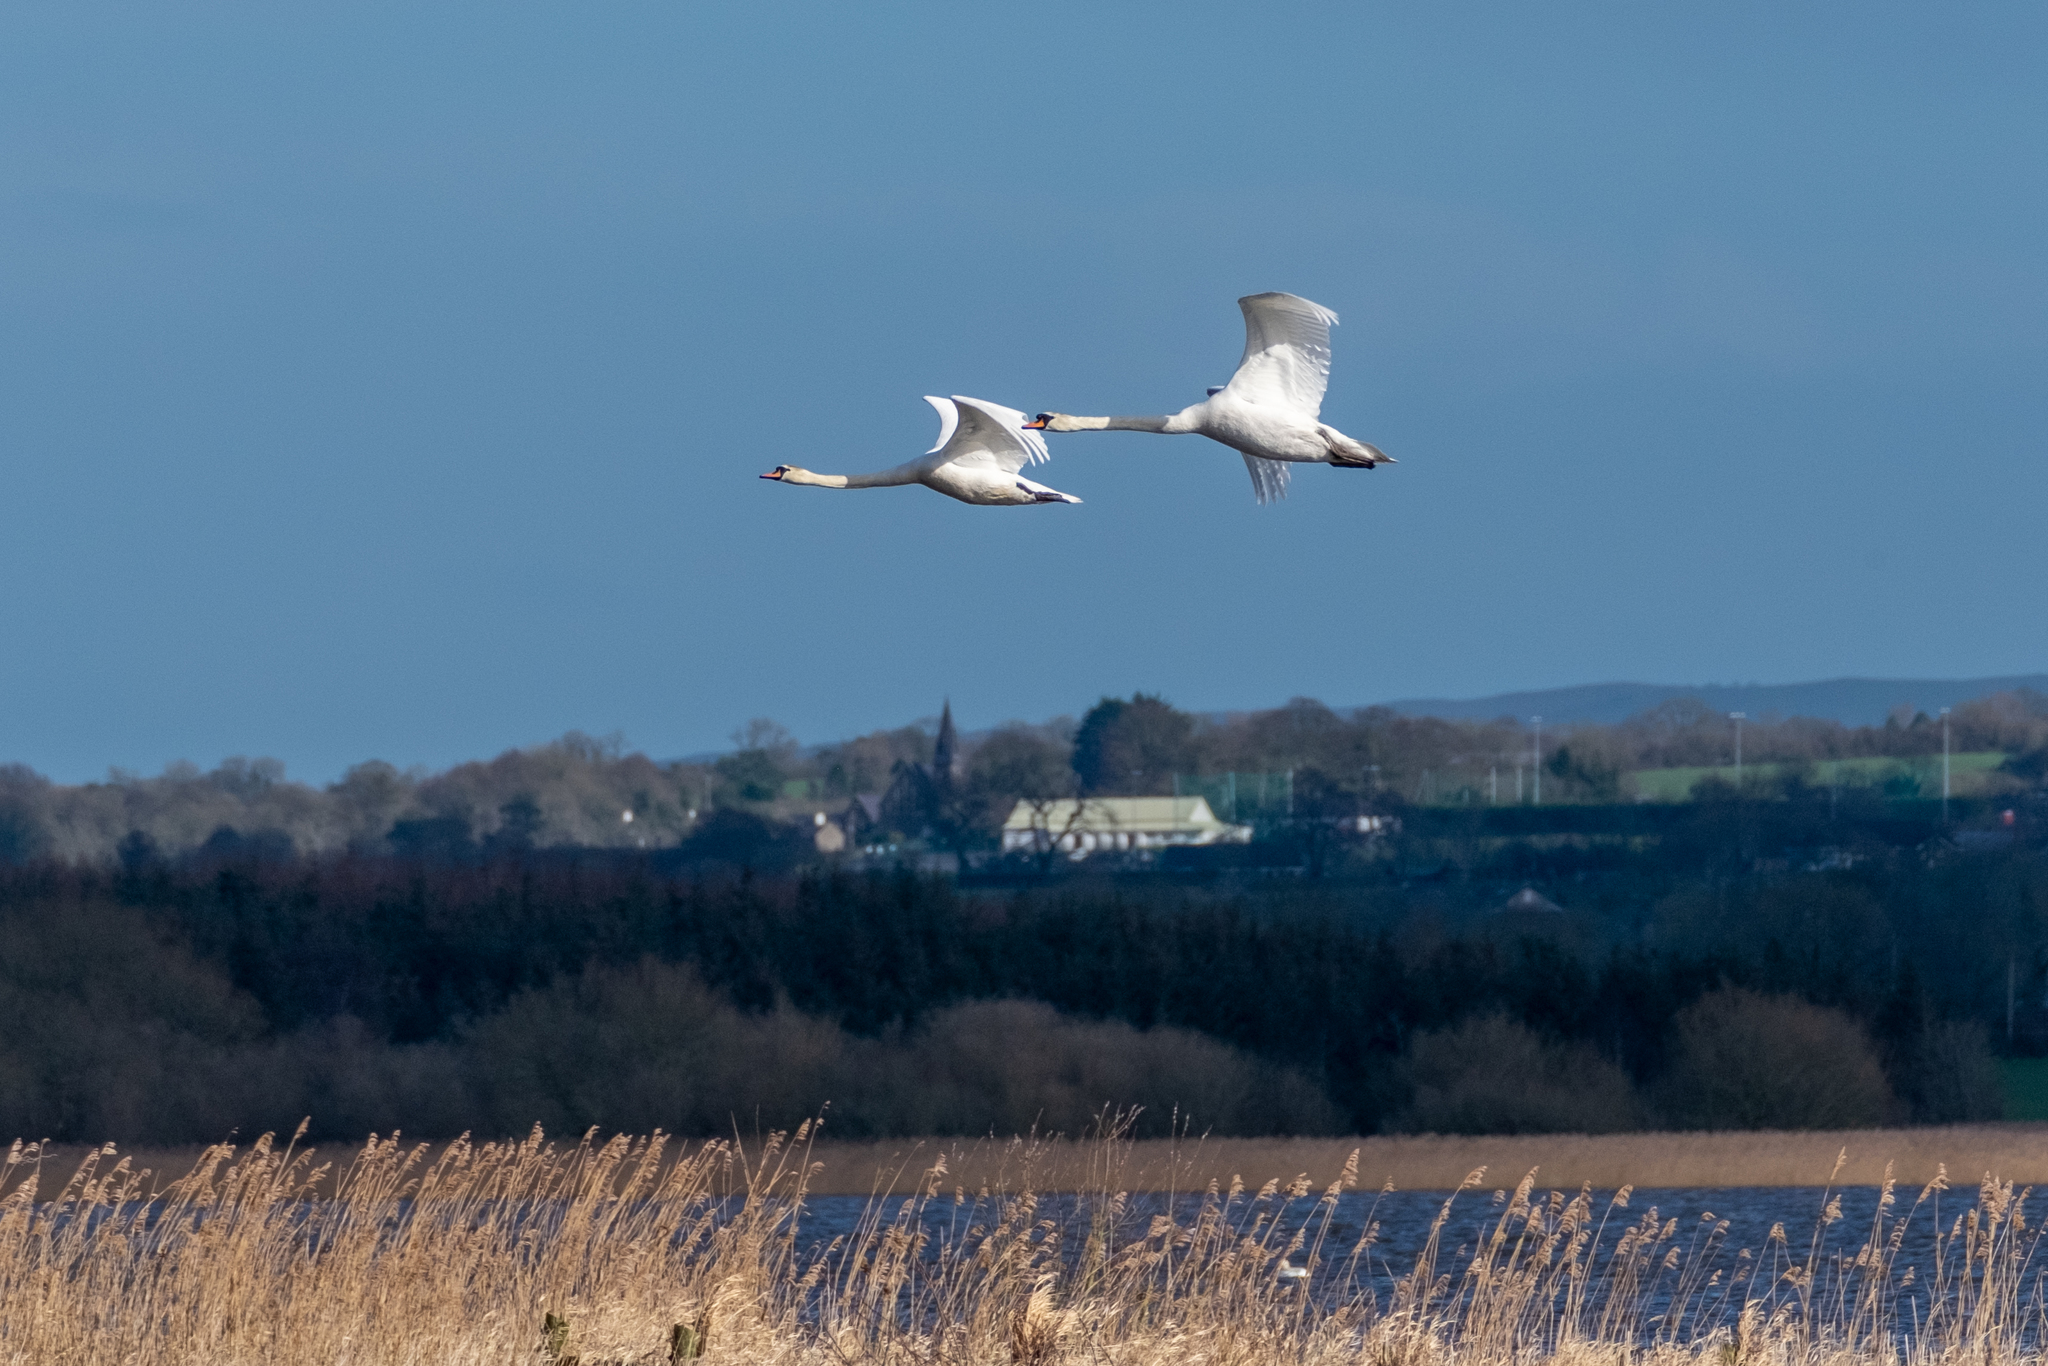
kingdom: Animalia
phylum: Chordata
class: Aves
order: Anseriformes
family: Anatidae
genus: Cygnus
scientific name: Cygnus olor
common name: Mute swan
